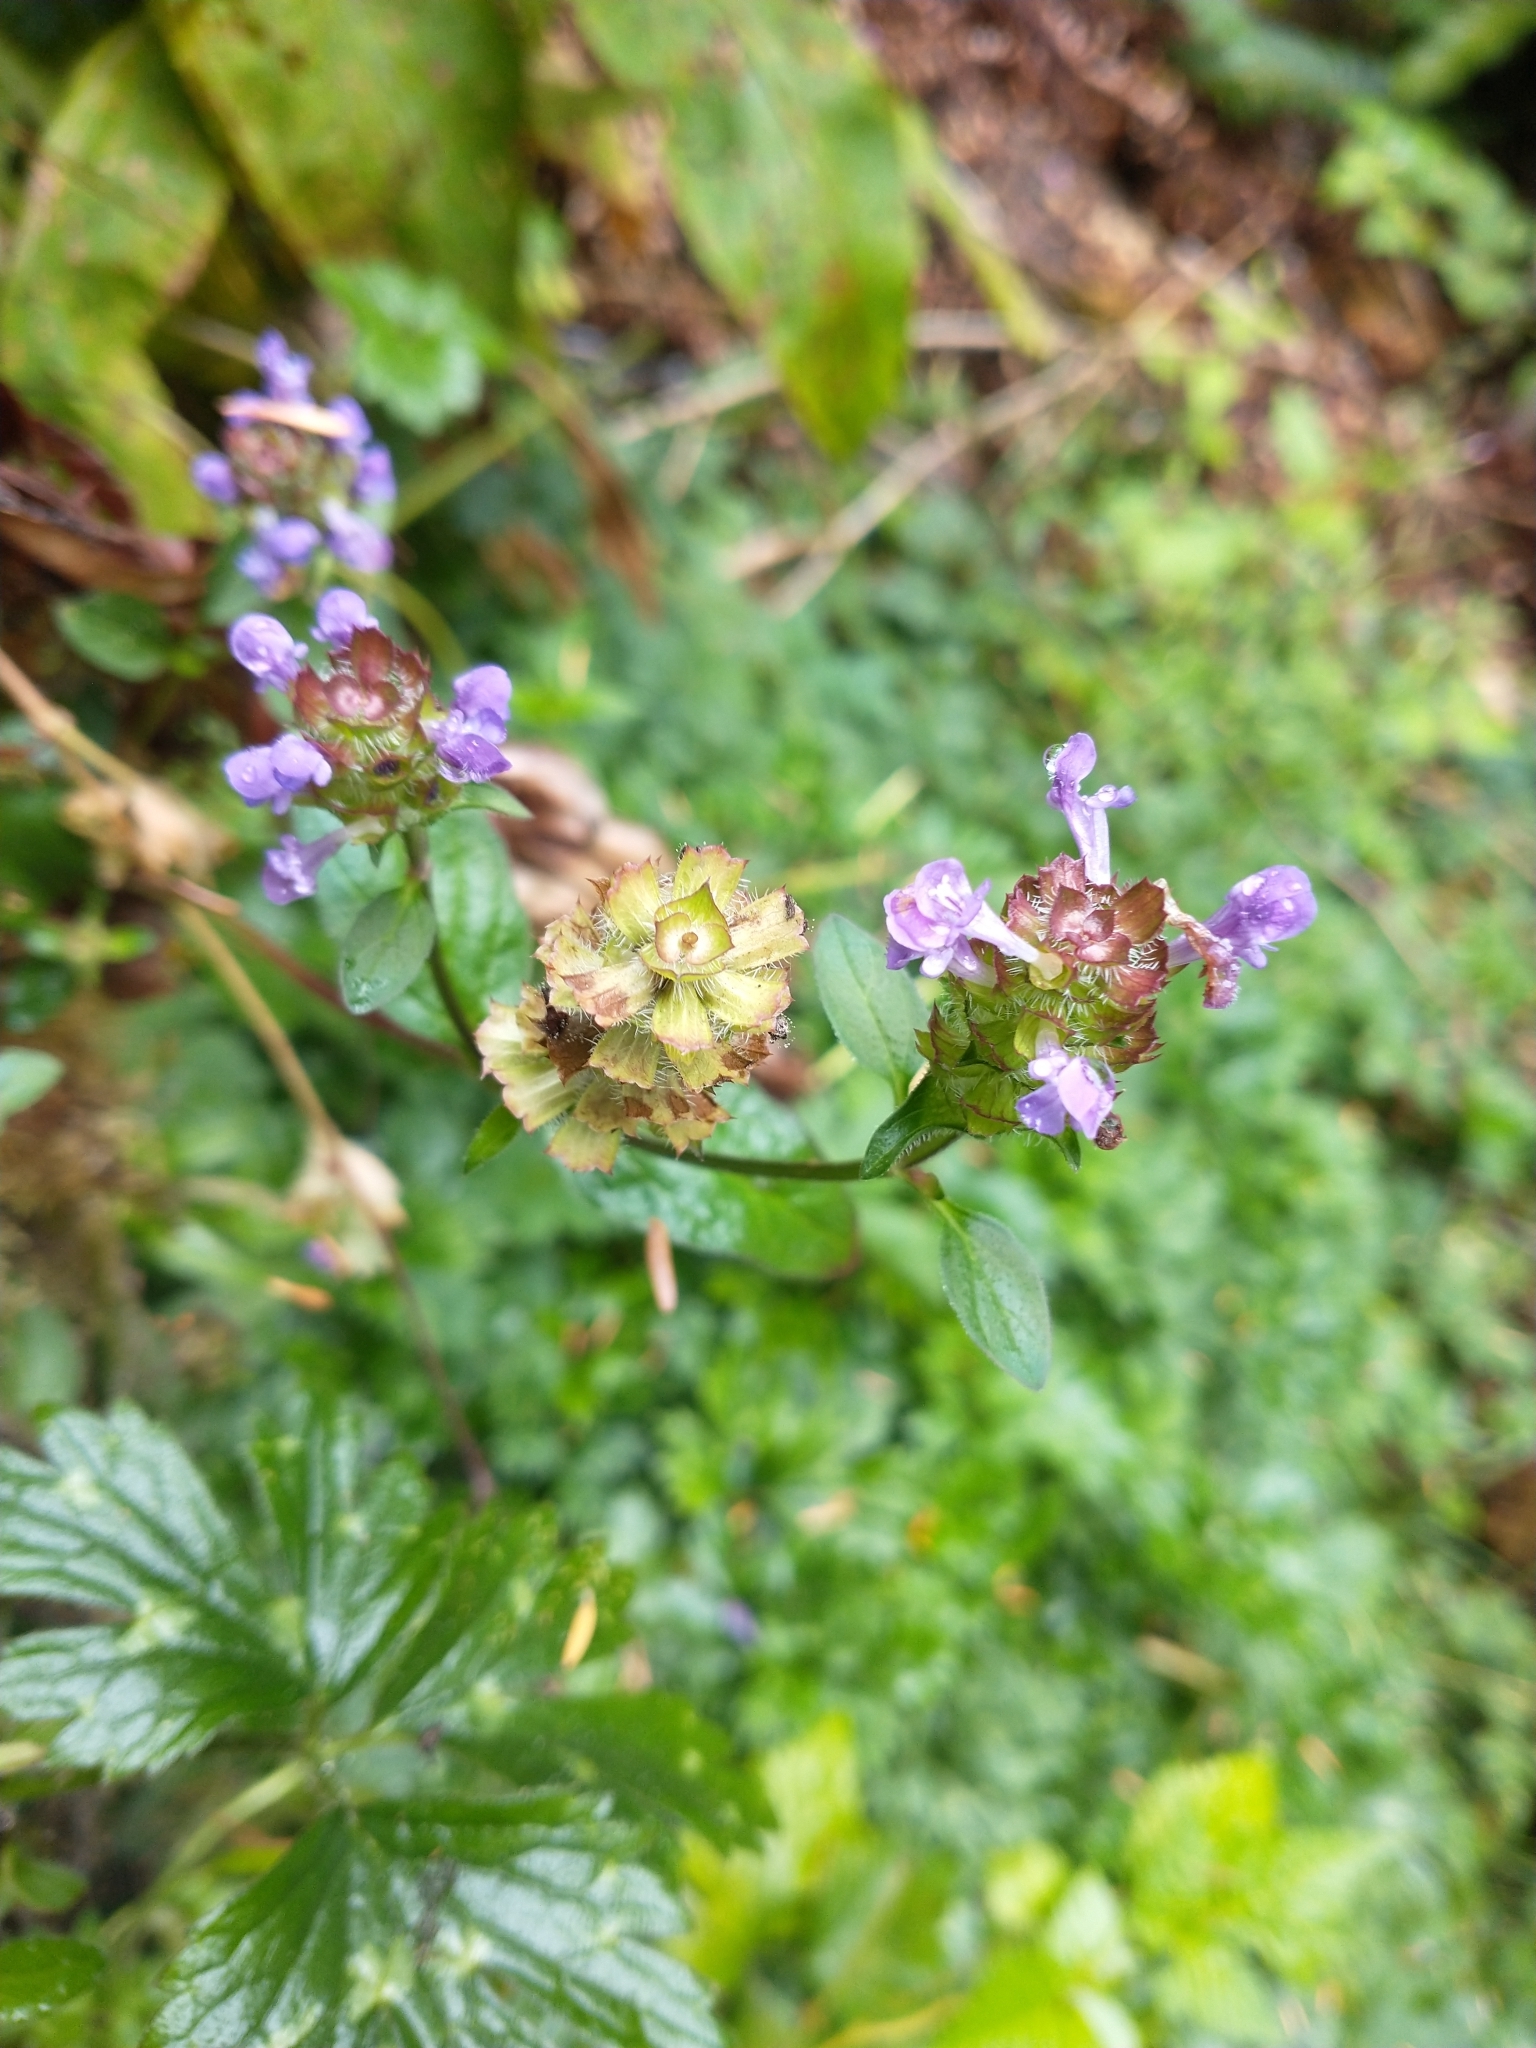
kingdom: Plantae
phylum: Tracheophyta
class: Magnoliopsida
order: Lamiales
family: Lamiaceae
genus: Prunella
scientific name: Prunella vulgaris
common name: Heal-all
